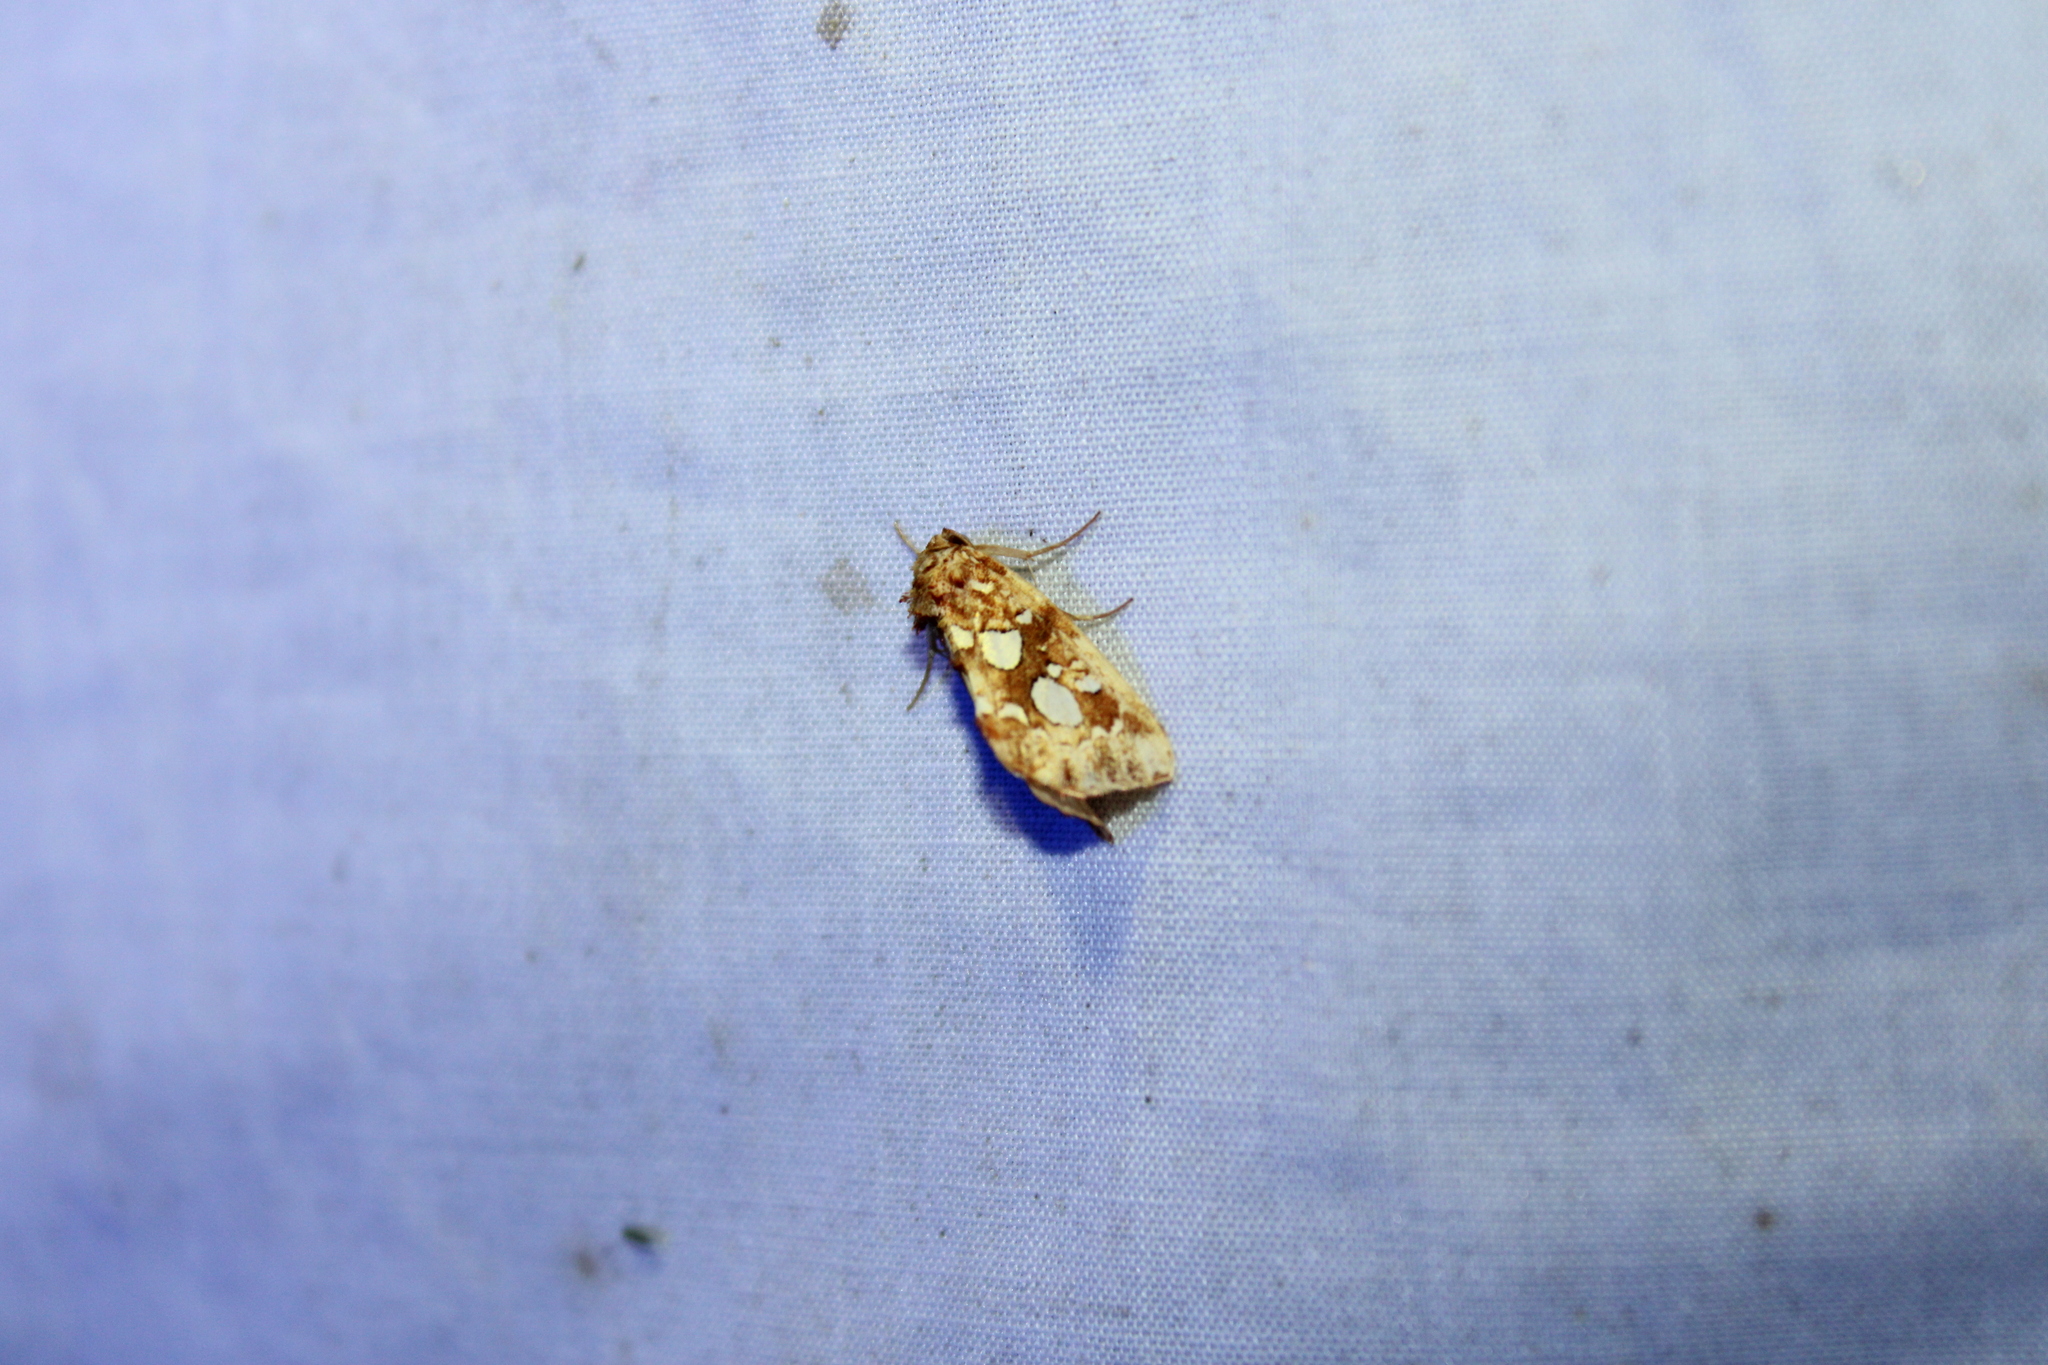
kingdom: Animalia
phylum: Arthropoda
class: Insecta
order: Lepidoptera
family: Noctuidae
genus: Callopistria
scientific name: Callopistria cordata
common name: Silver-spotted fern moth
